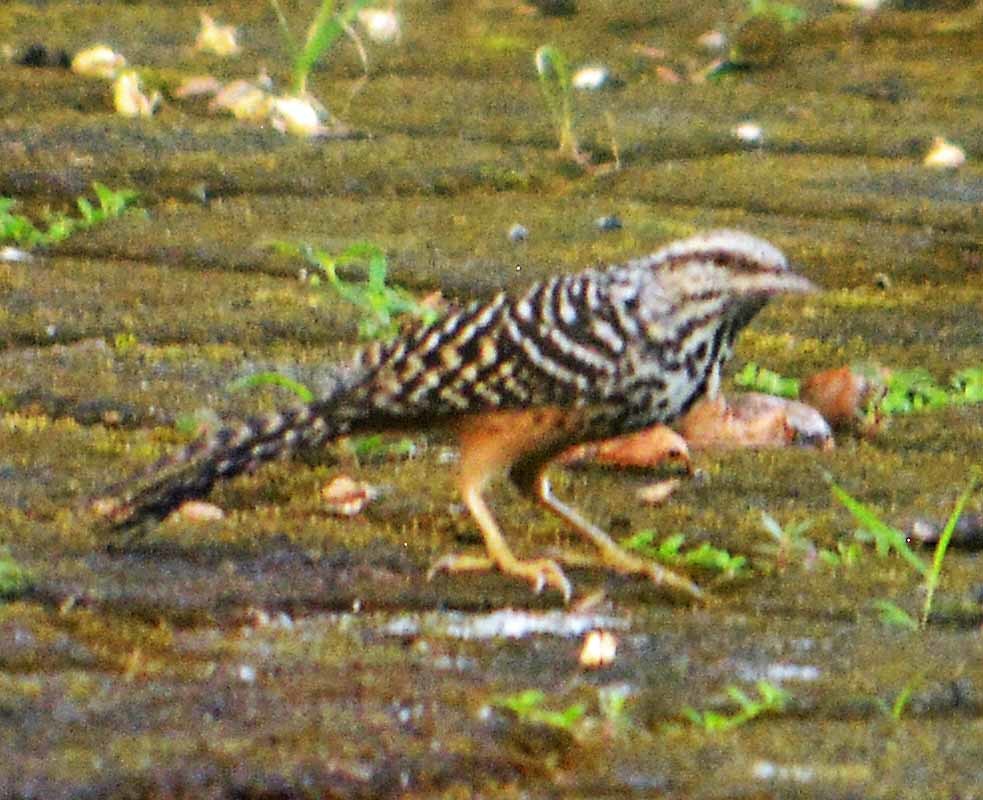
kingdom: Animalia
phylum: Chordata
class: Aves
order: Passeriformes
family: Troglodytidae
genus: Campylorhynchus
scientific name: Campylorhynchus zonatus
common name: Band-backed wren
